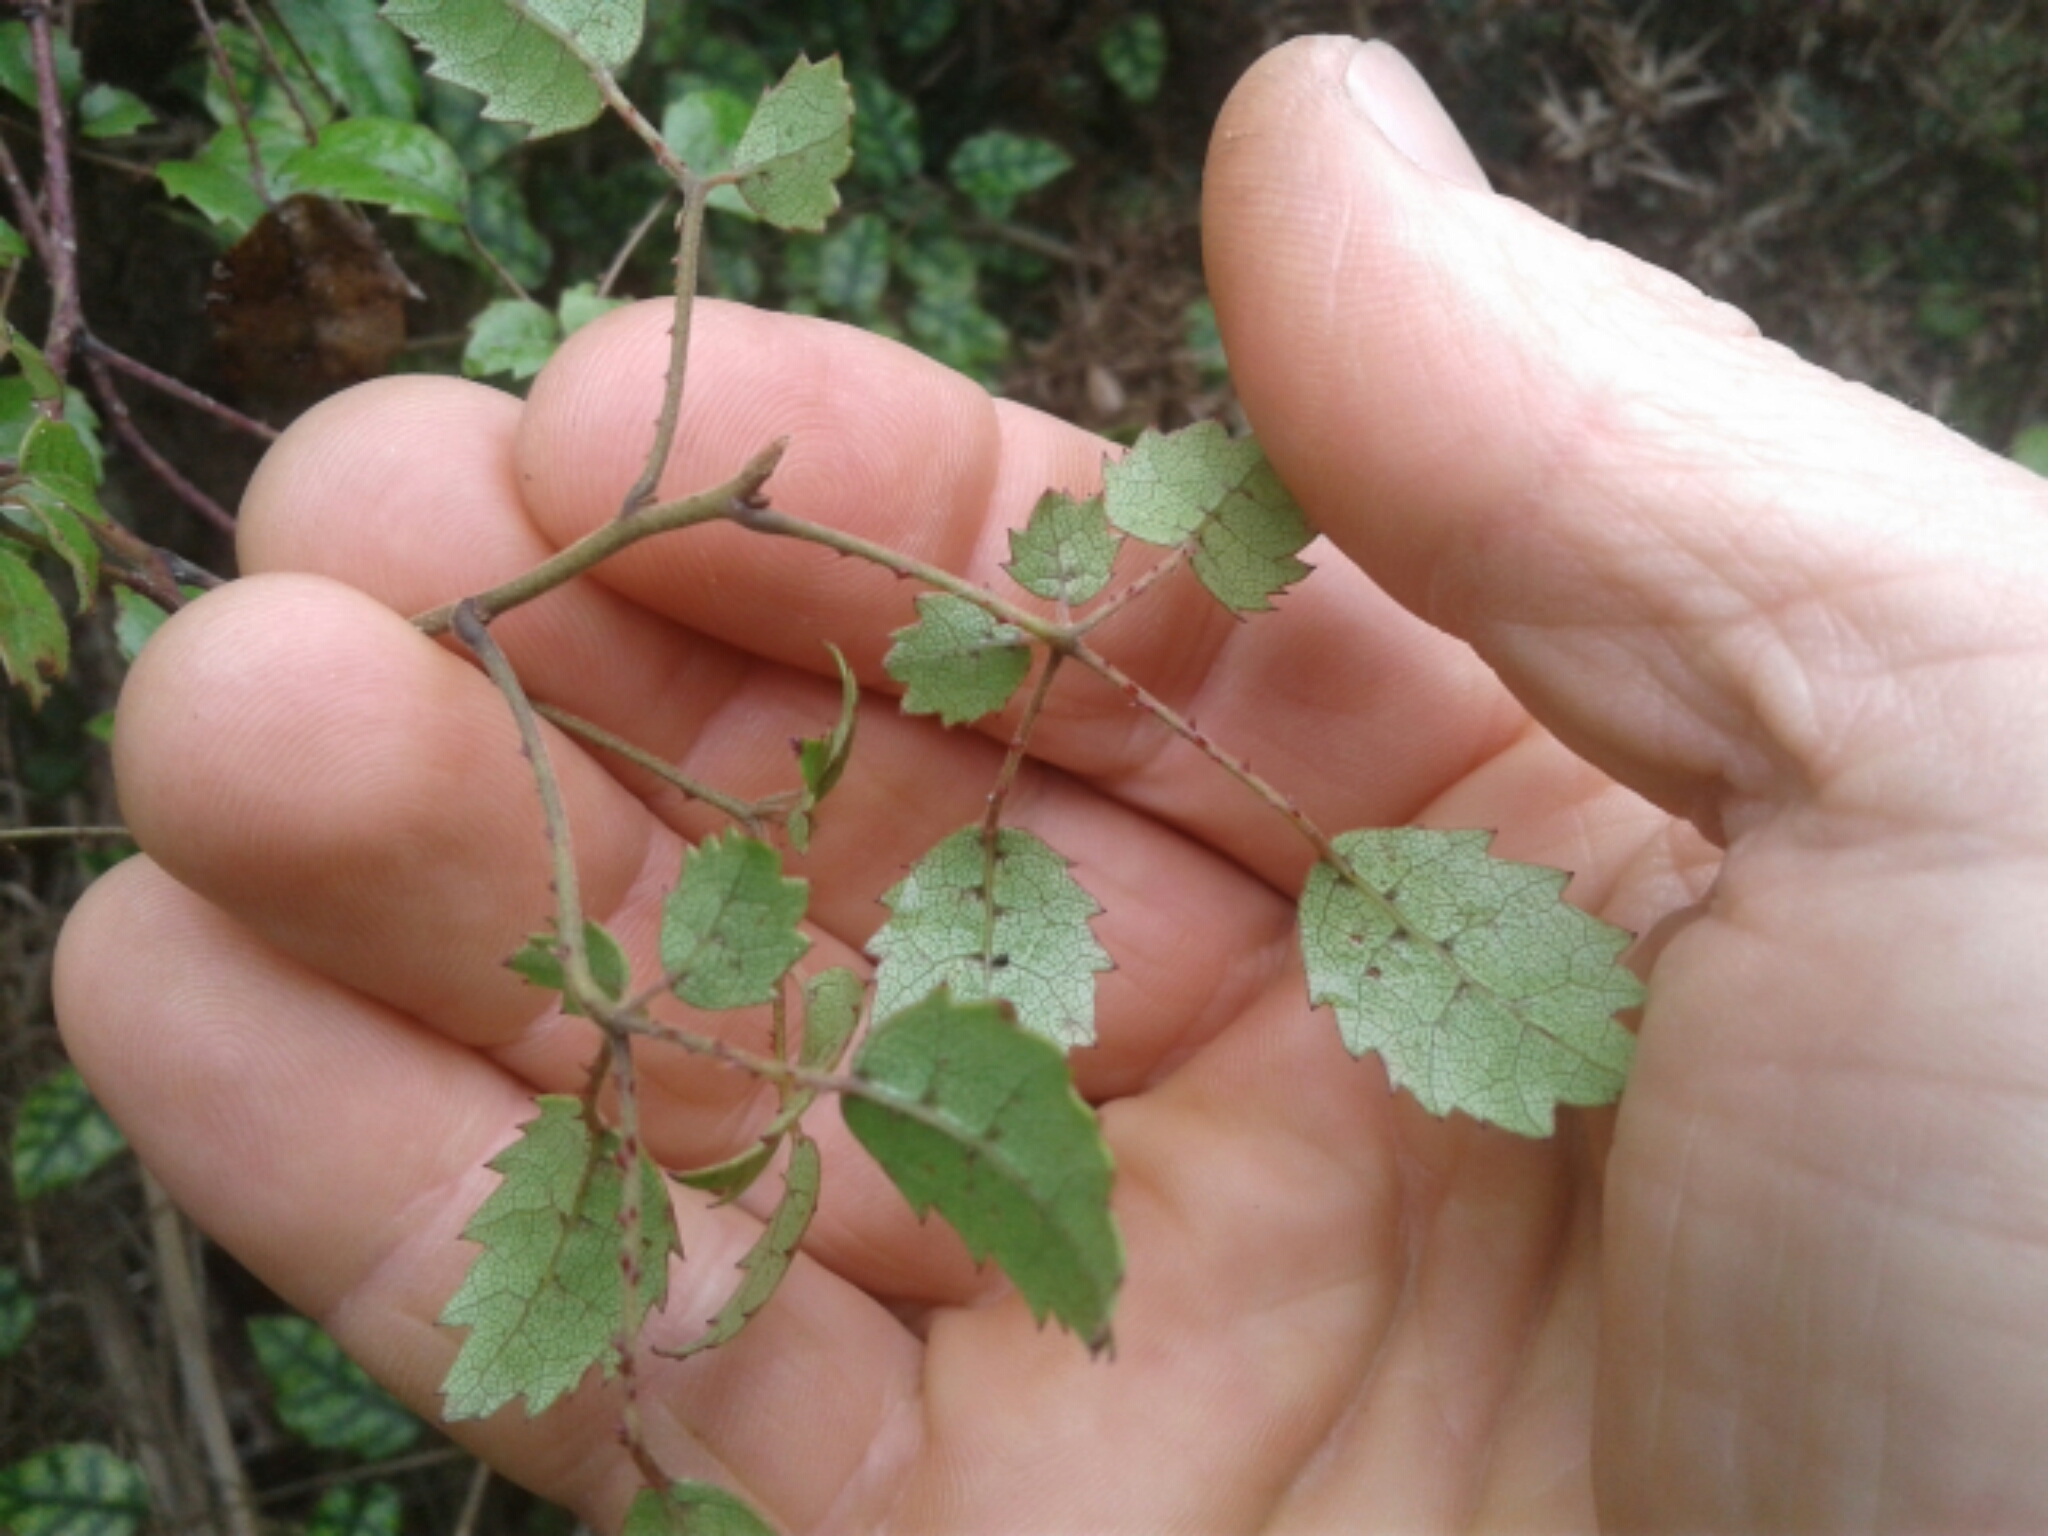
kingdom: Plantae
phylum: Tracheophyta
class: Magnoliopsida
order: Rosales
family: Rosaceae
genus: Rubus
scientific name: Rubus australis
